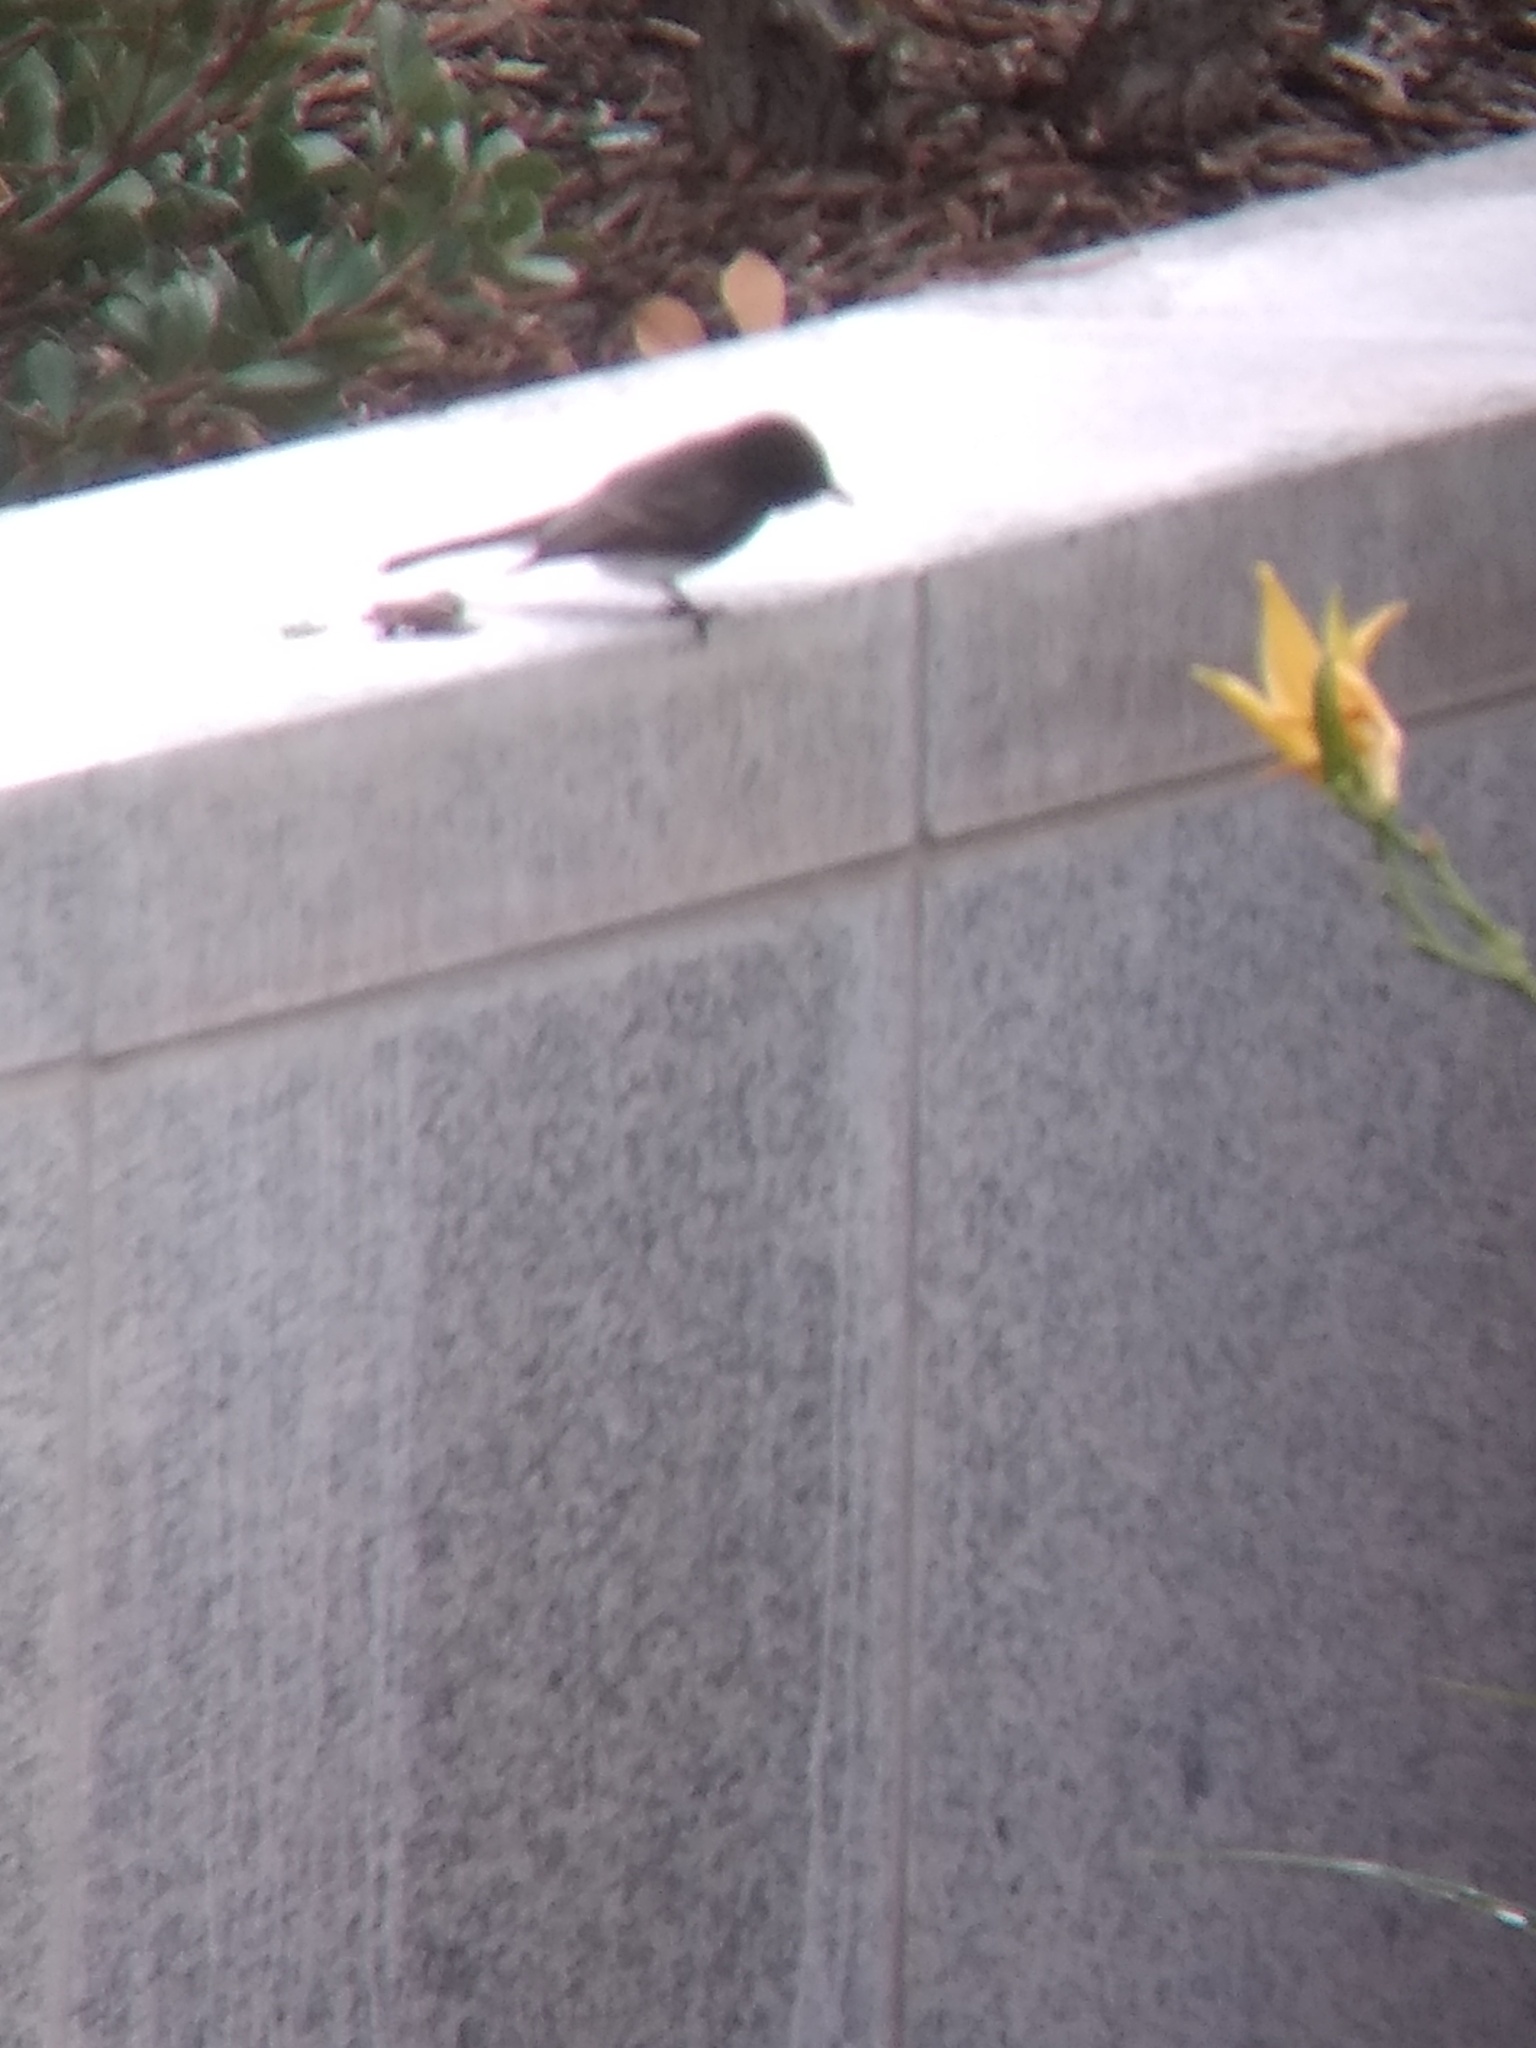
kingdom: Animalia
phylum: Chordata
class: Aves
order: Passeriformes
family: Tyrannidae
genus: Sayornis
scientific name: Sayornis nigricans
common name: Black phoebe
